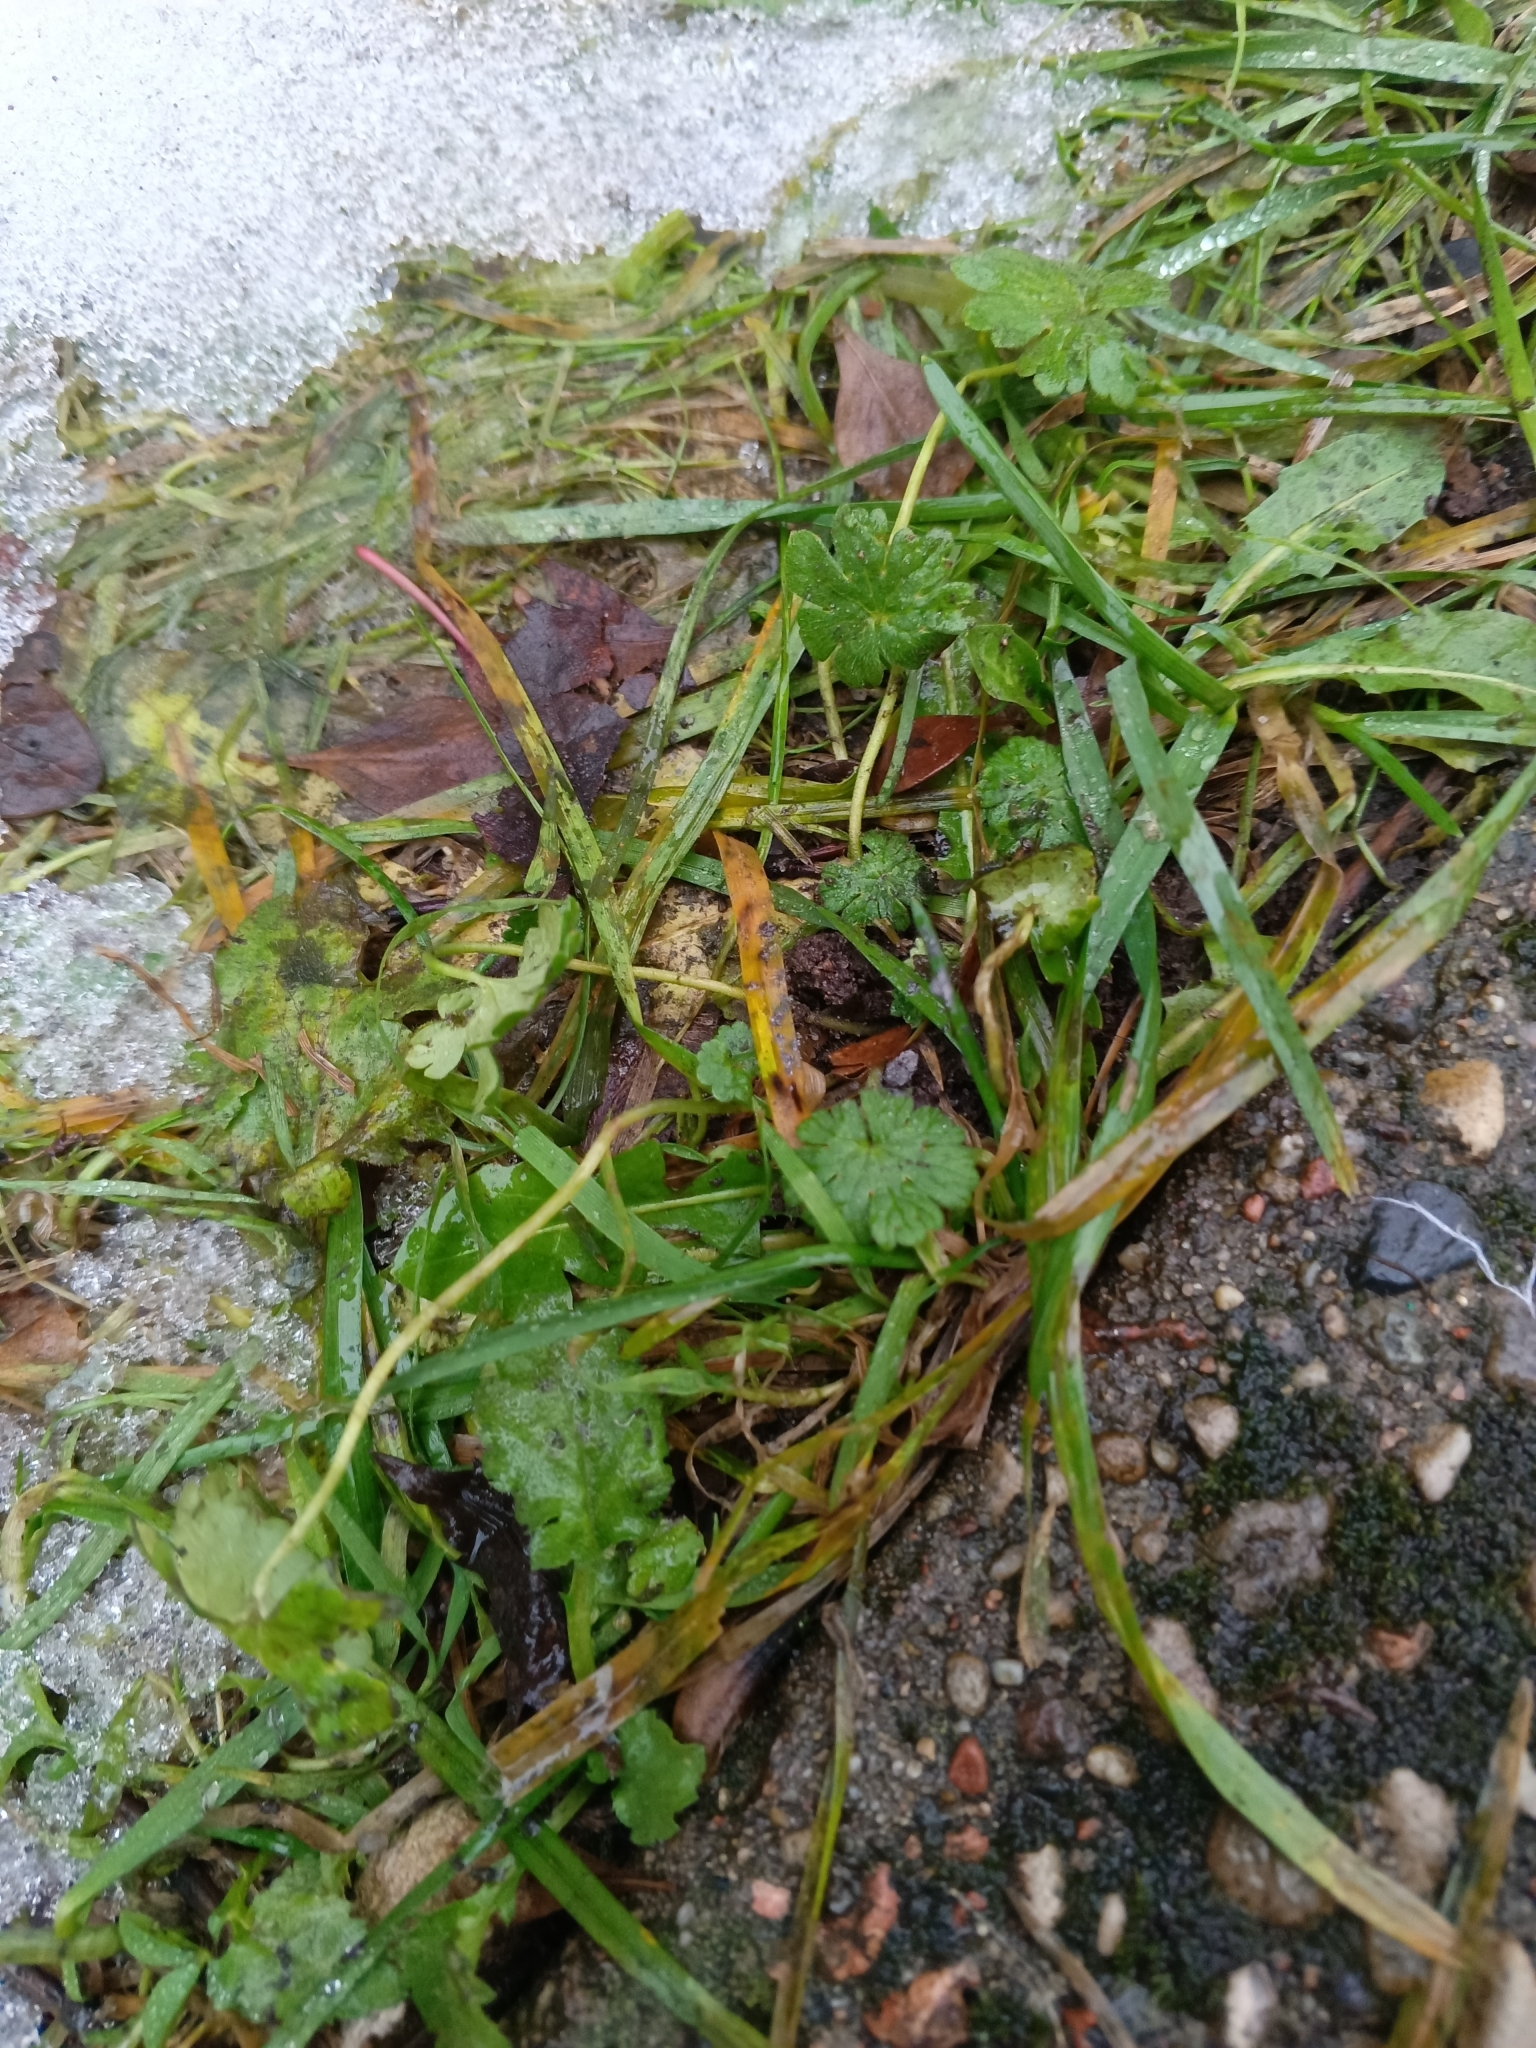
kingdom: Plantae
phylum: Tracheophyta
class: Magnoliopsida
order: Geraniales
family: Geraniaceae
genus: Geranium
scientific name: Geranium pusillum
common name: Small geranium
